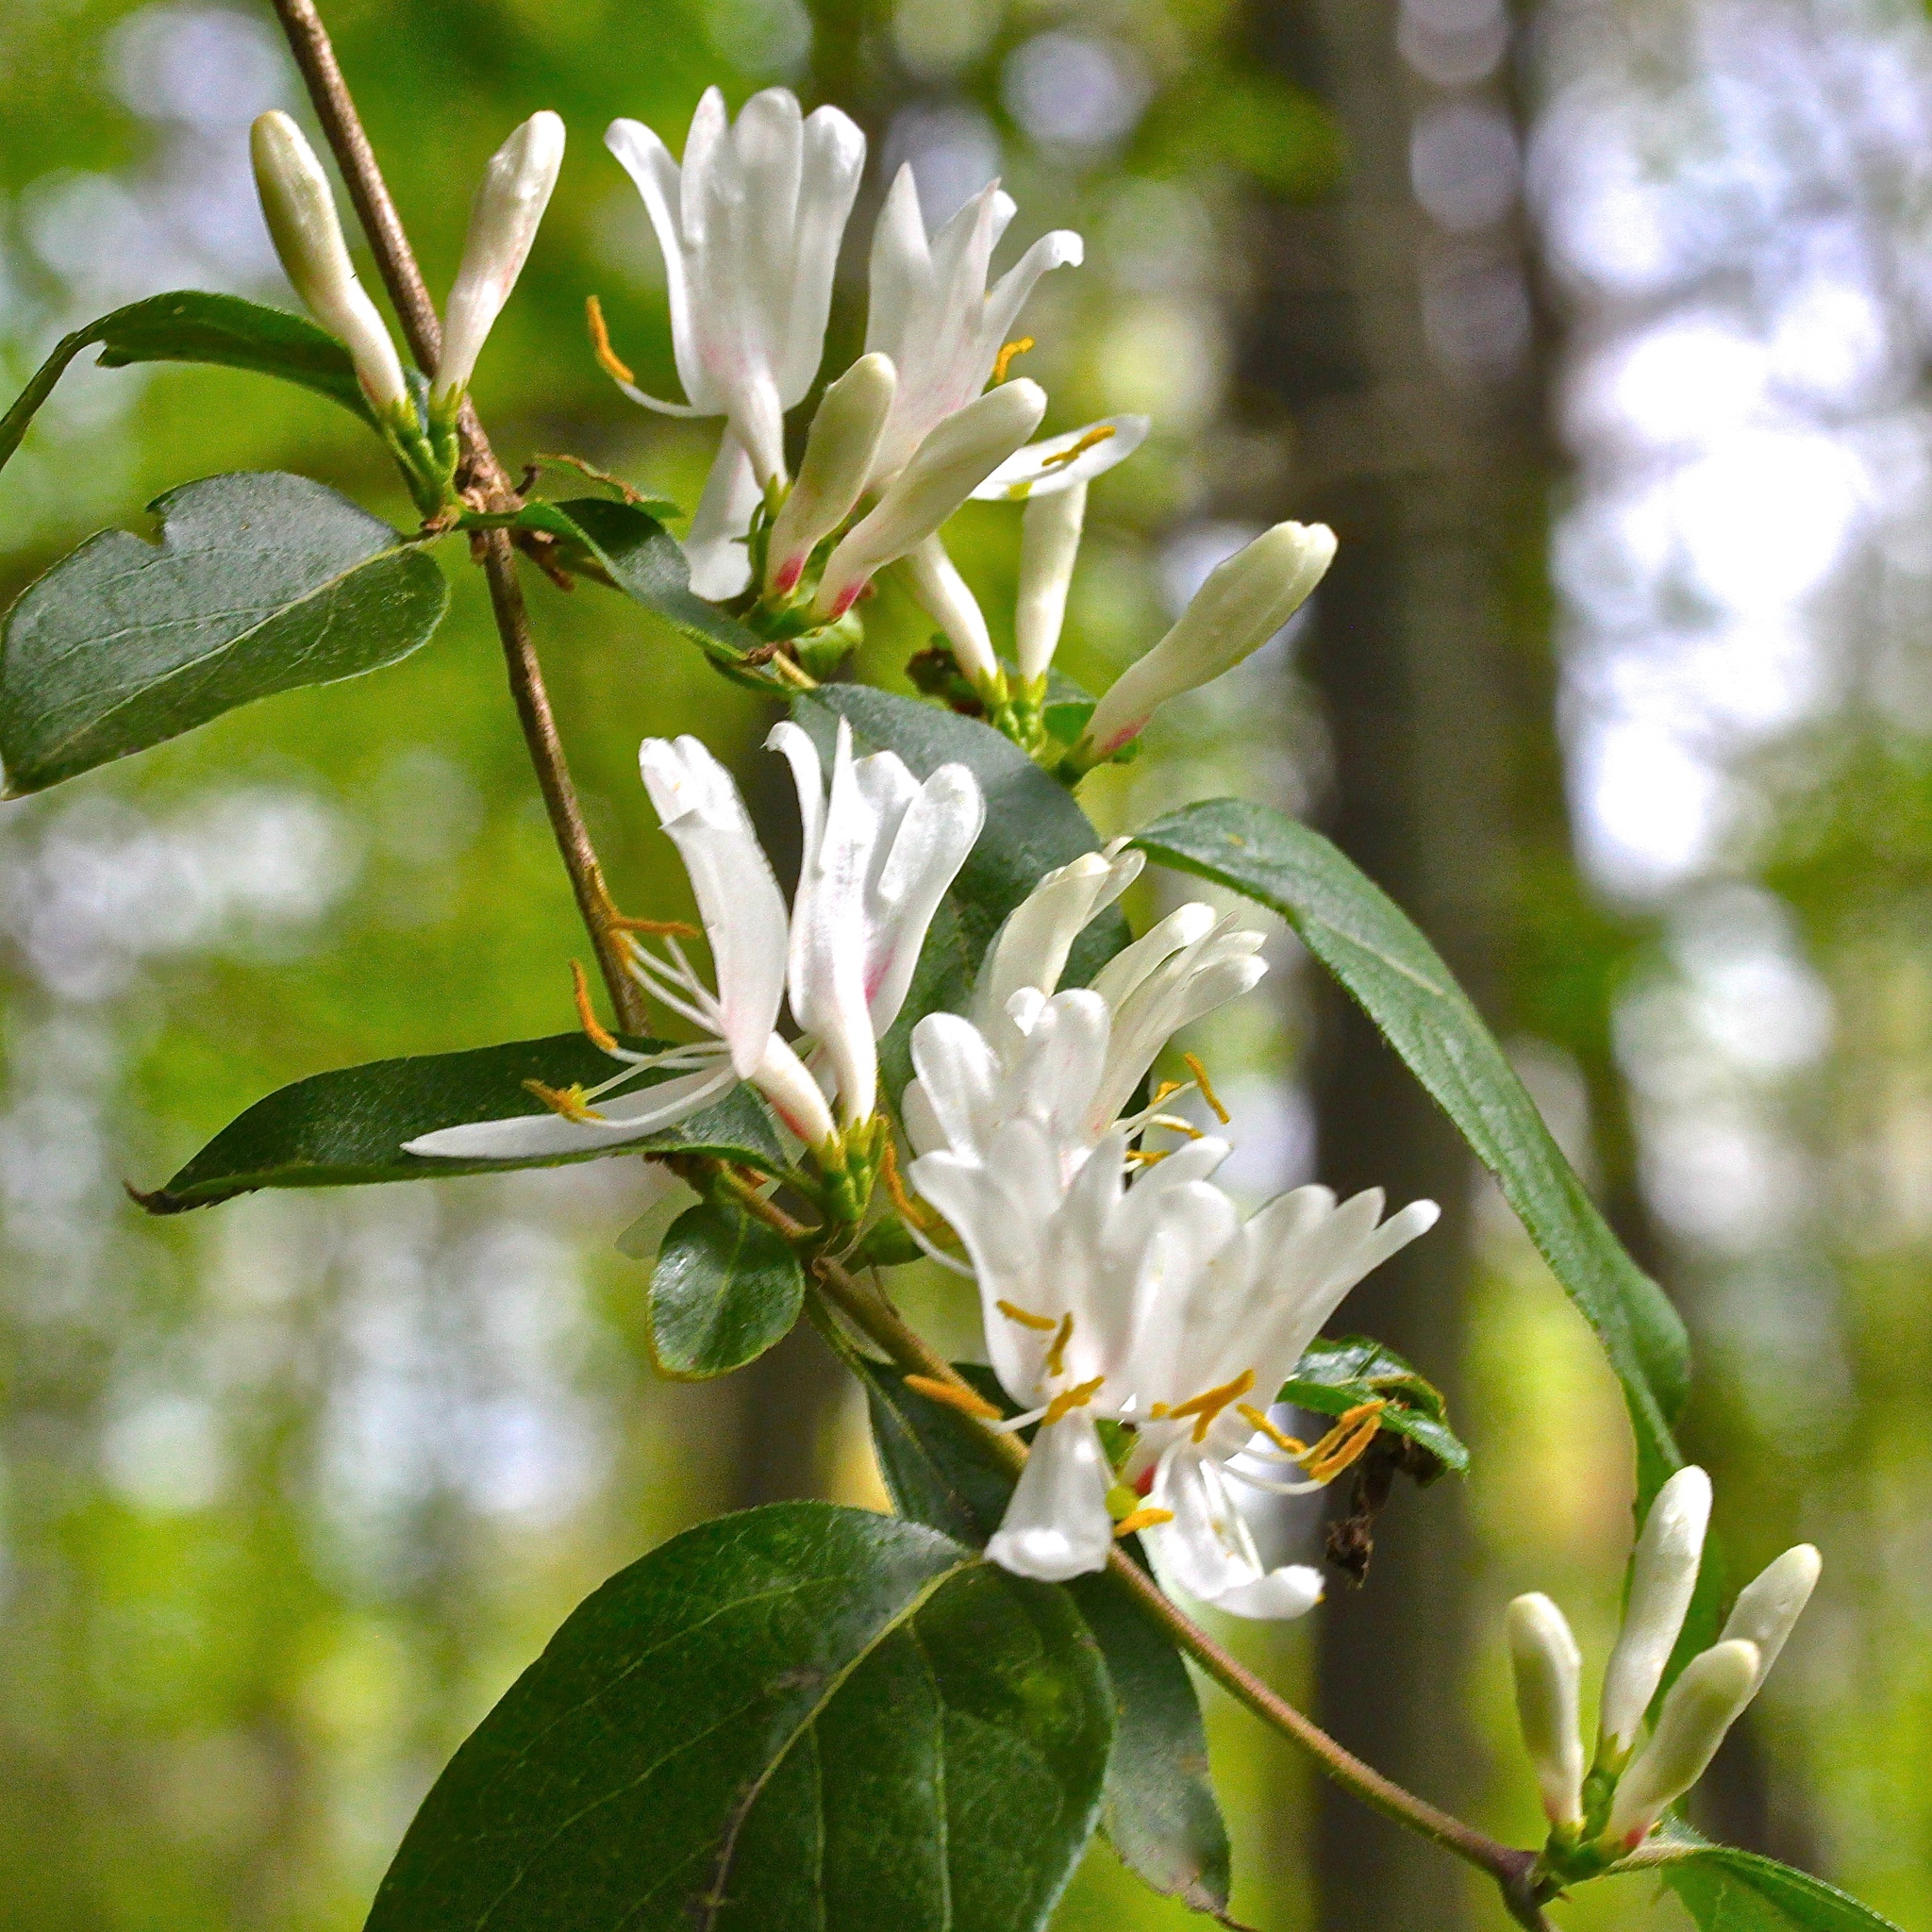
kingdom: Plantae
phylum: Tracheophyta
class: Magnoliopsida
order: Dipsacales
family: Caprifoliaceae
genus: Lonicera
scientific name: Lonicera maackii
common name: Amur honeysuckle
